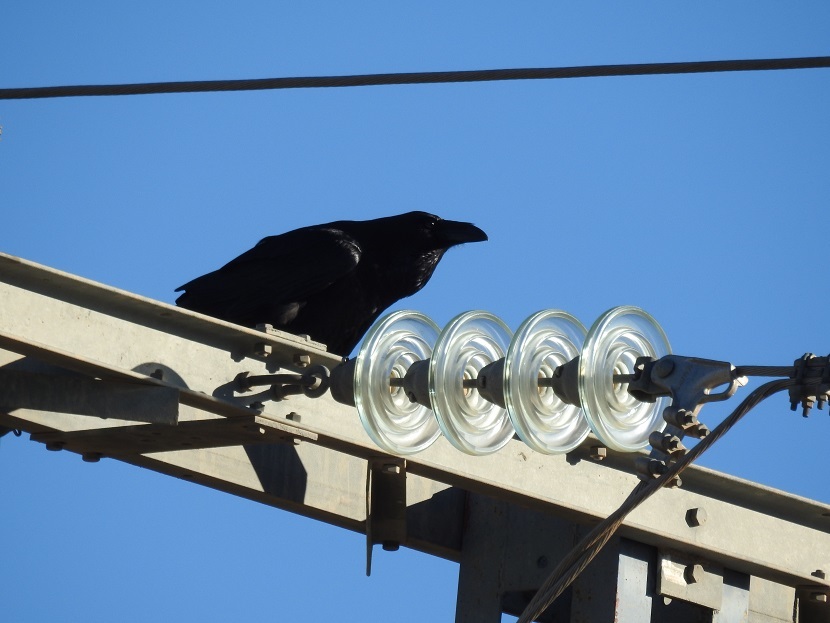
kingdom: Animalia
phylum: Chordata
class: Aves
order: Passeriformes
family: Corvidae
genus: Corvus
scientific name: Corvus corax
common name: Common raven
